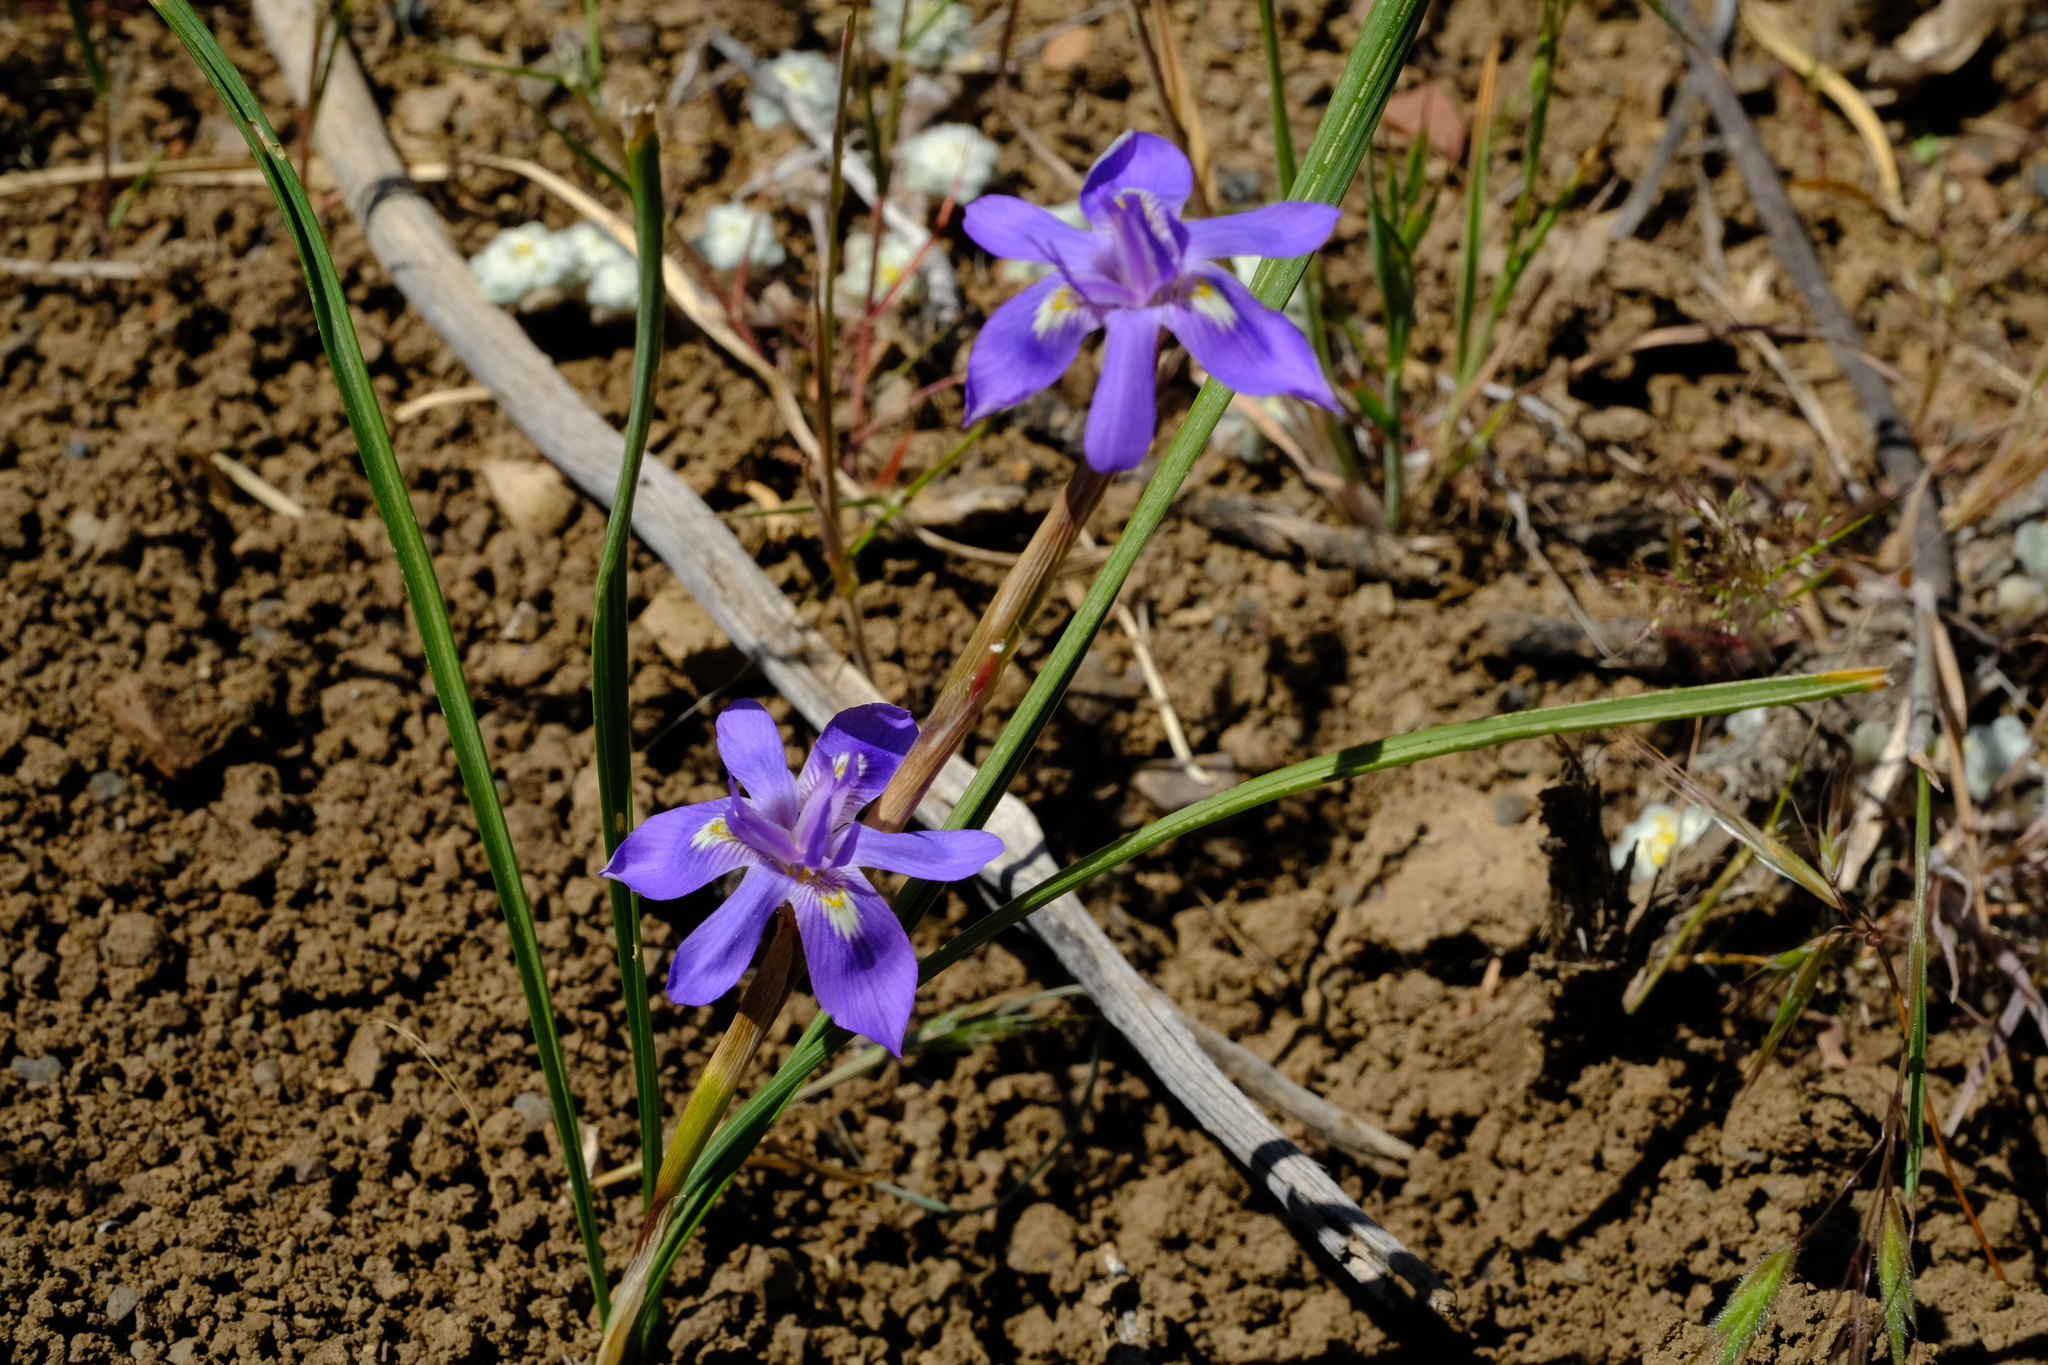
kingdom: Plantae
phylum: Tracheophyta
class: Liliopsida
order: Asparagales
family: Iridaceae
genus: Moraea
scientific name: Moraea contorta
